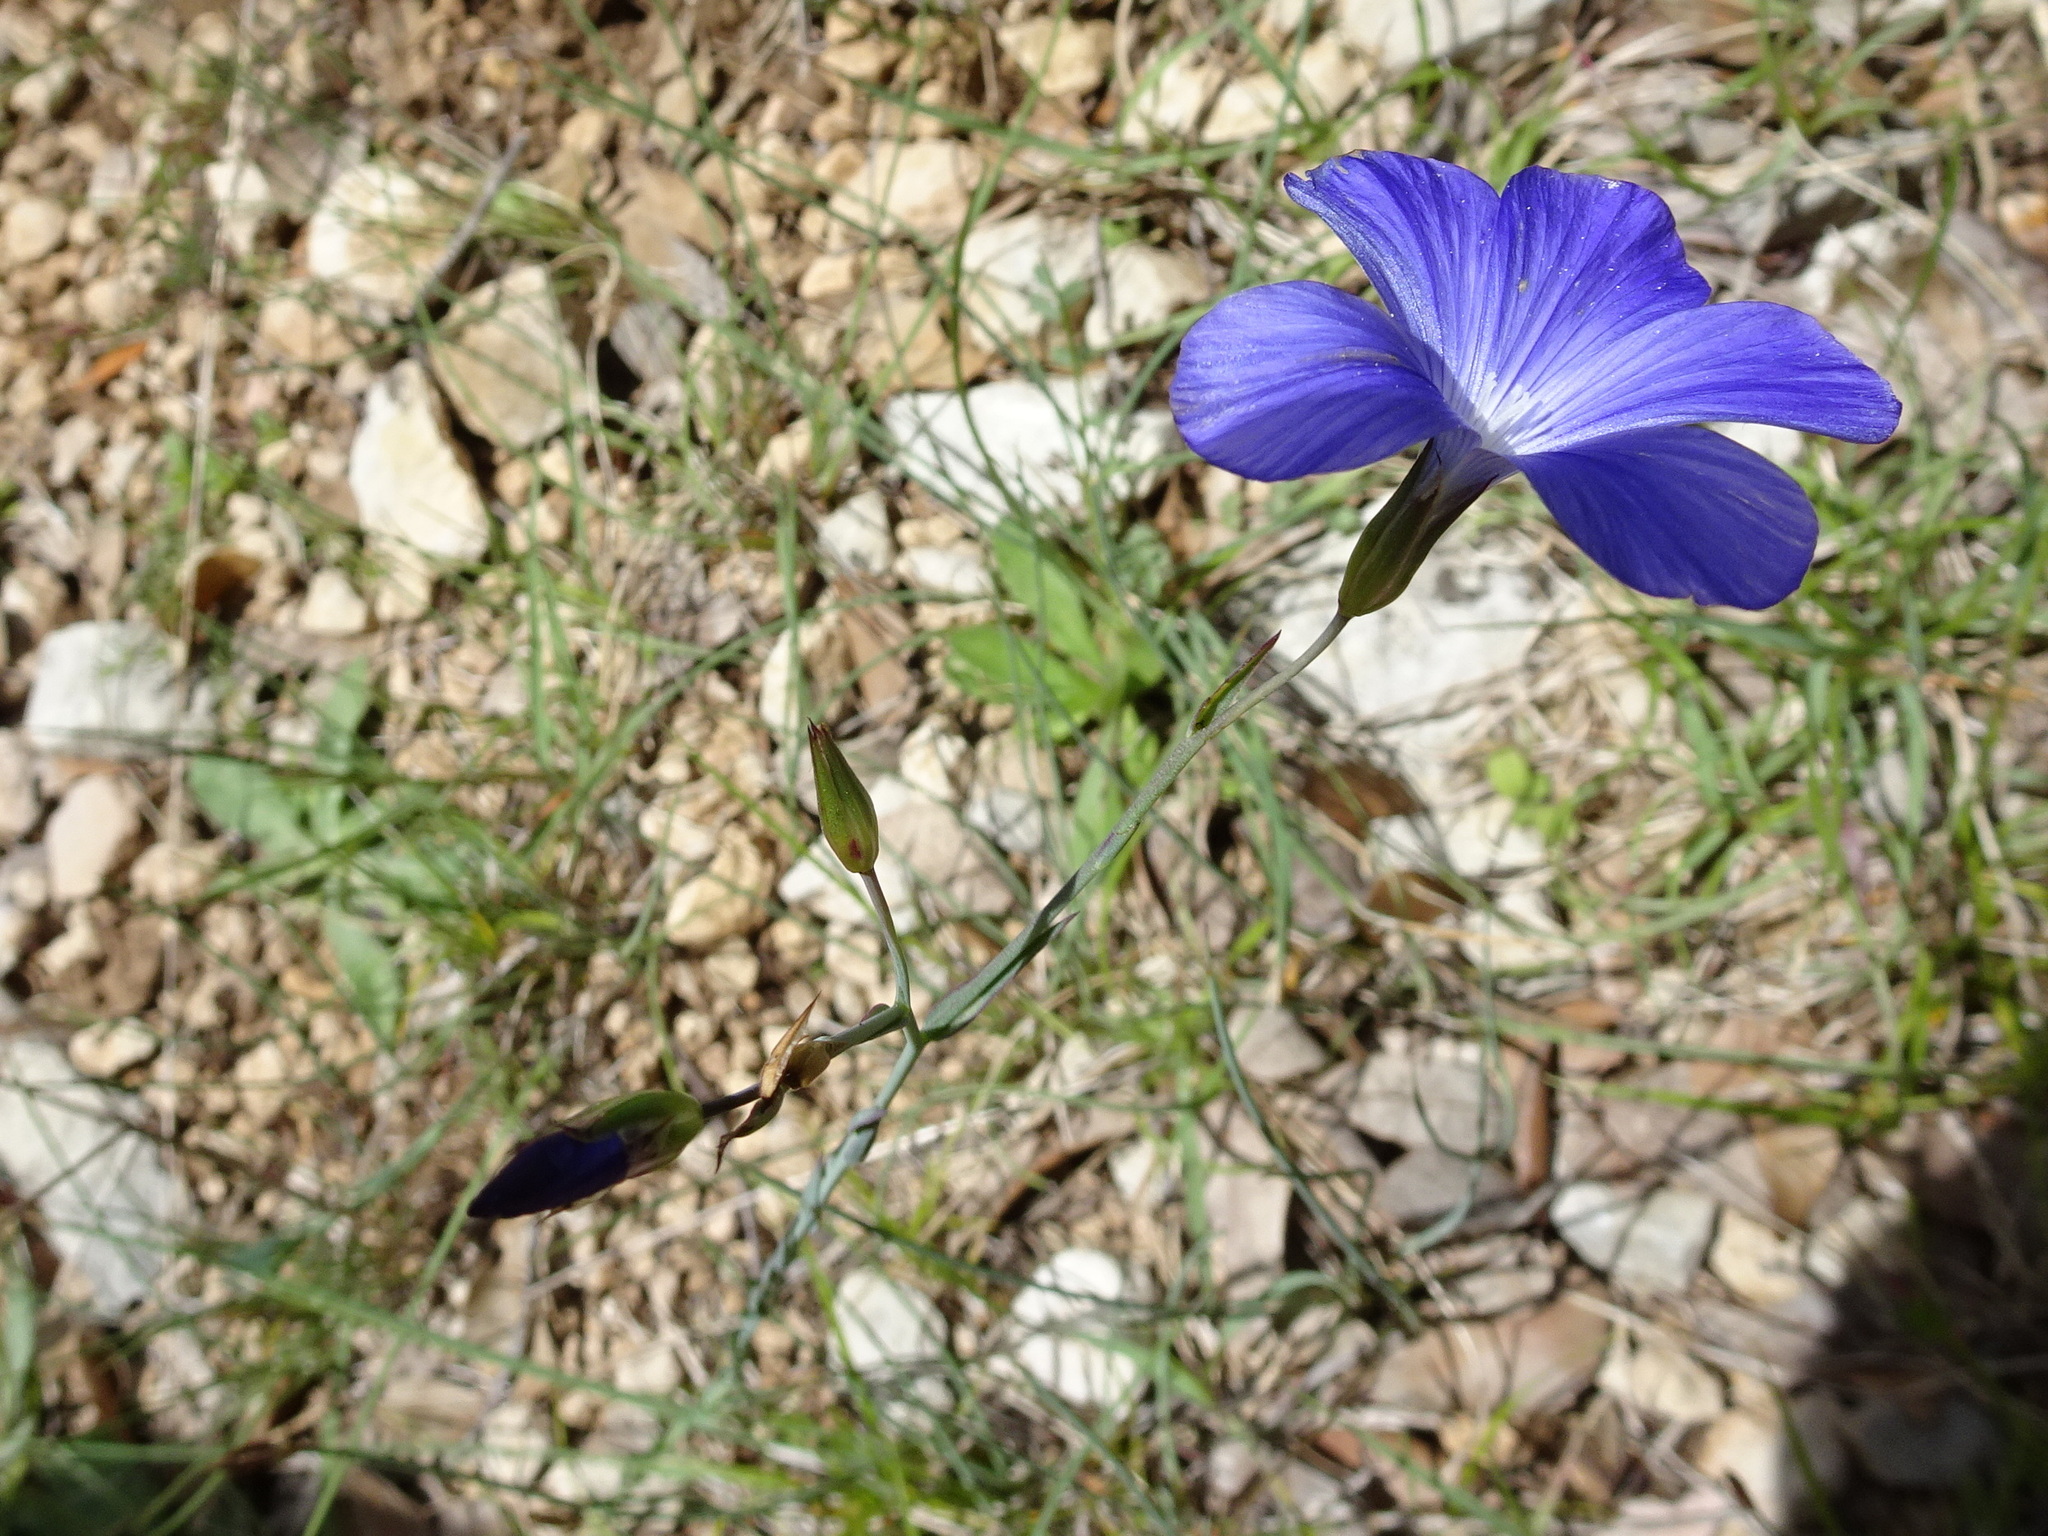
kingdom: Plantae
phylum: Tracheophyta
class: Magnoliopsida
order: Malpighiales
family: Linaceae
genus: Linum
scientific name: Linum narbonense
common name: Flax
